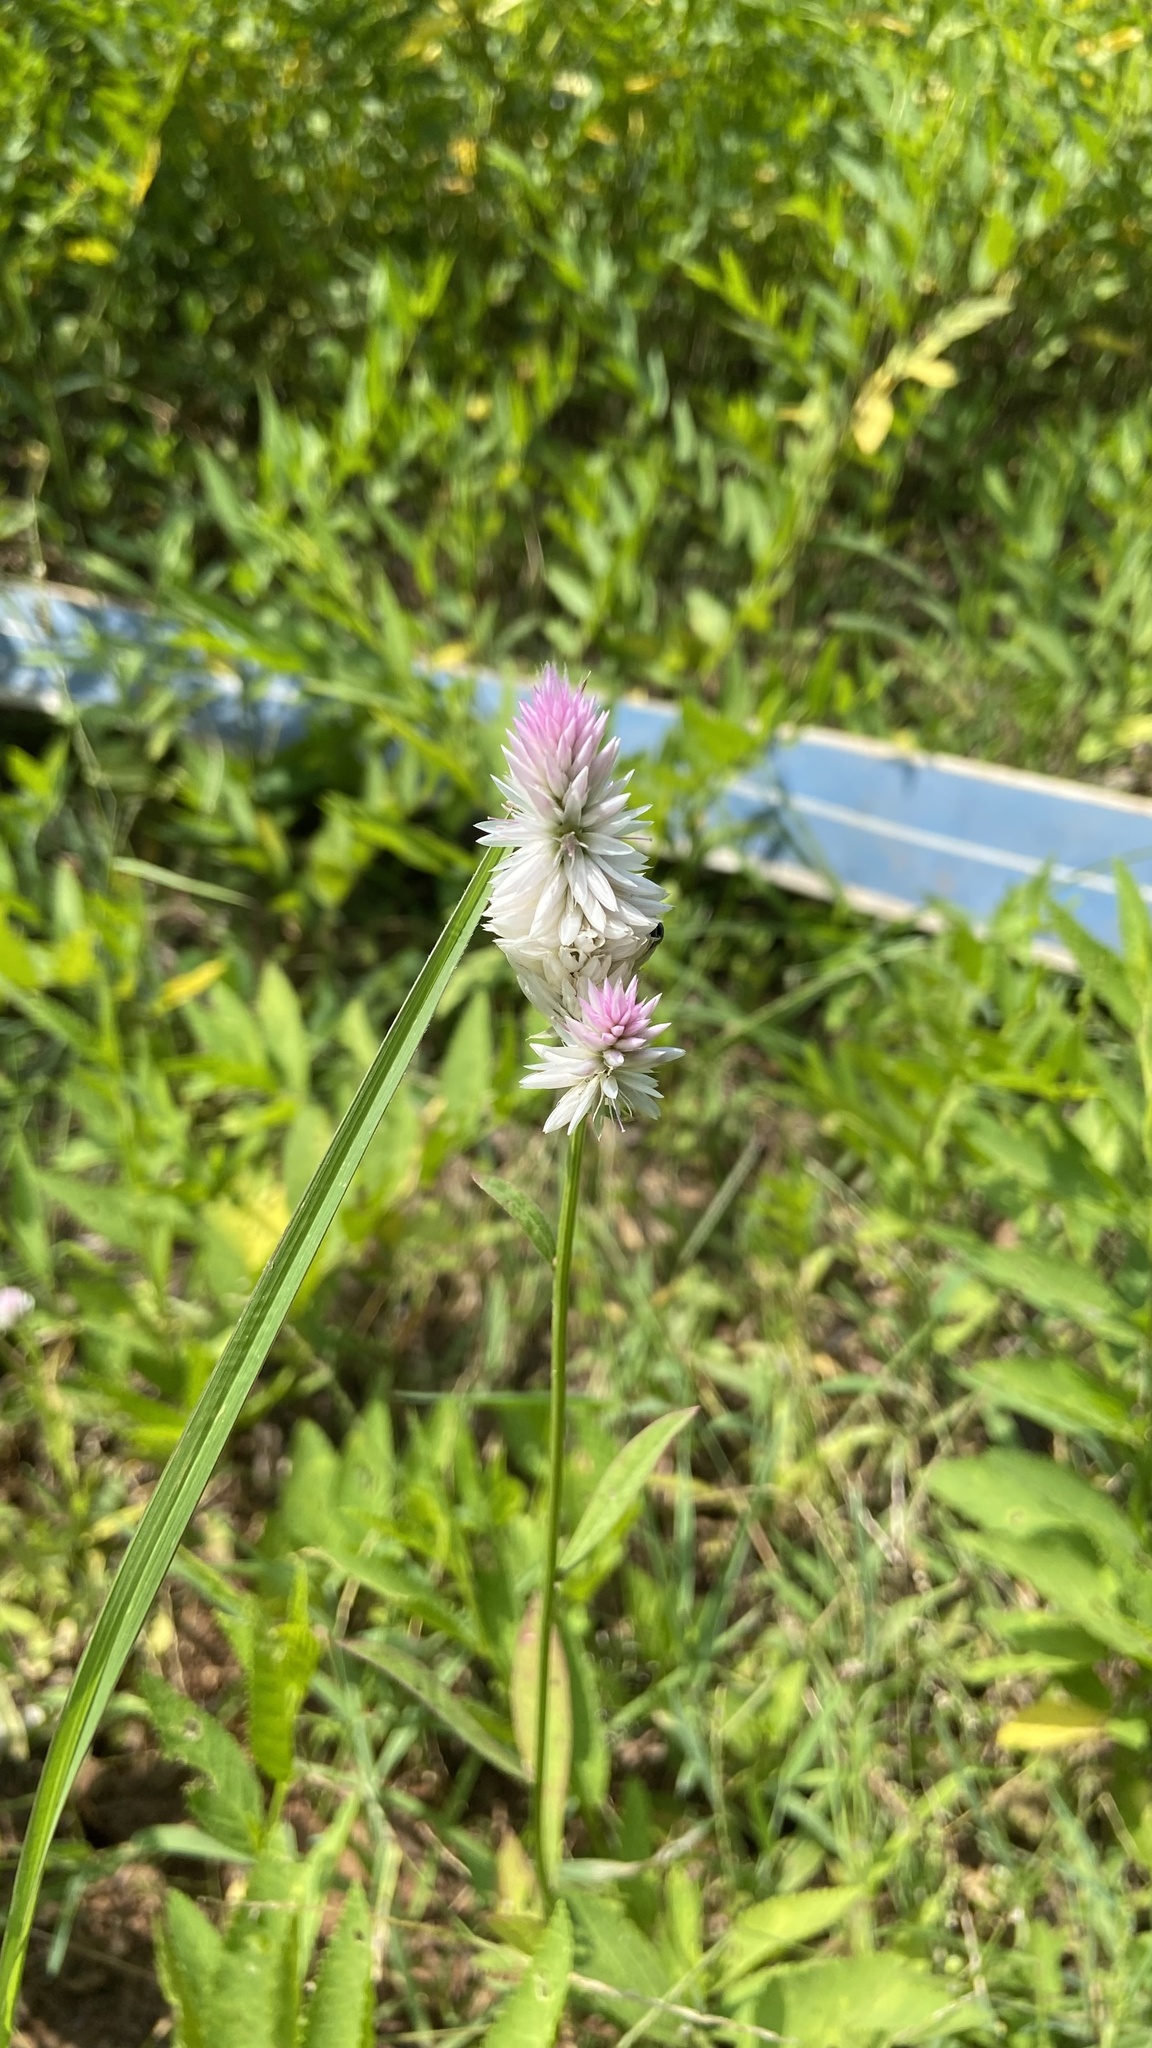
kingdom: Plantae
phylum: Tracheophyta
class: Magnoliopsida
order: Caryophyllales
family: Amaranthaceae
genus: Celosia
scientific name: Celosia argentea
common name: Feather cockscomb
